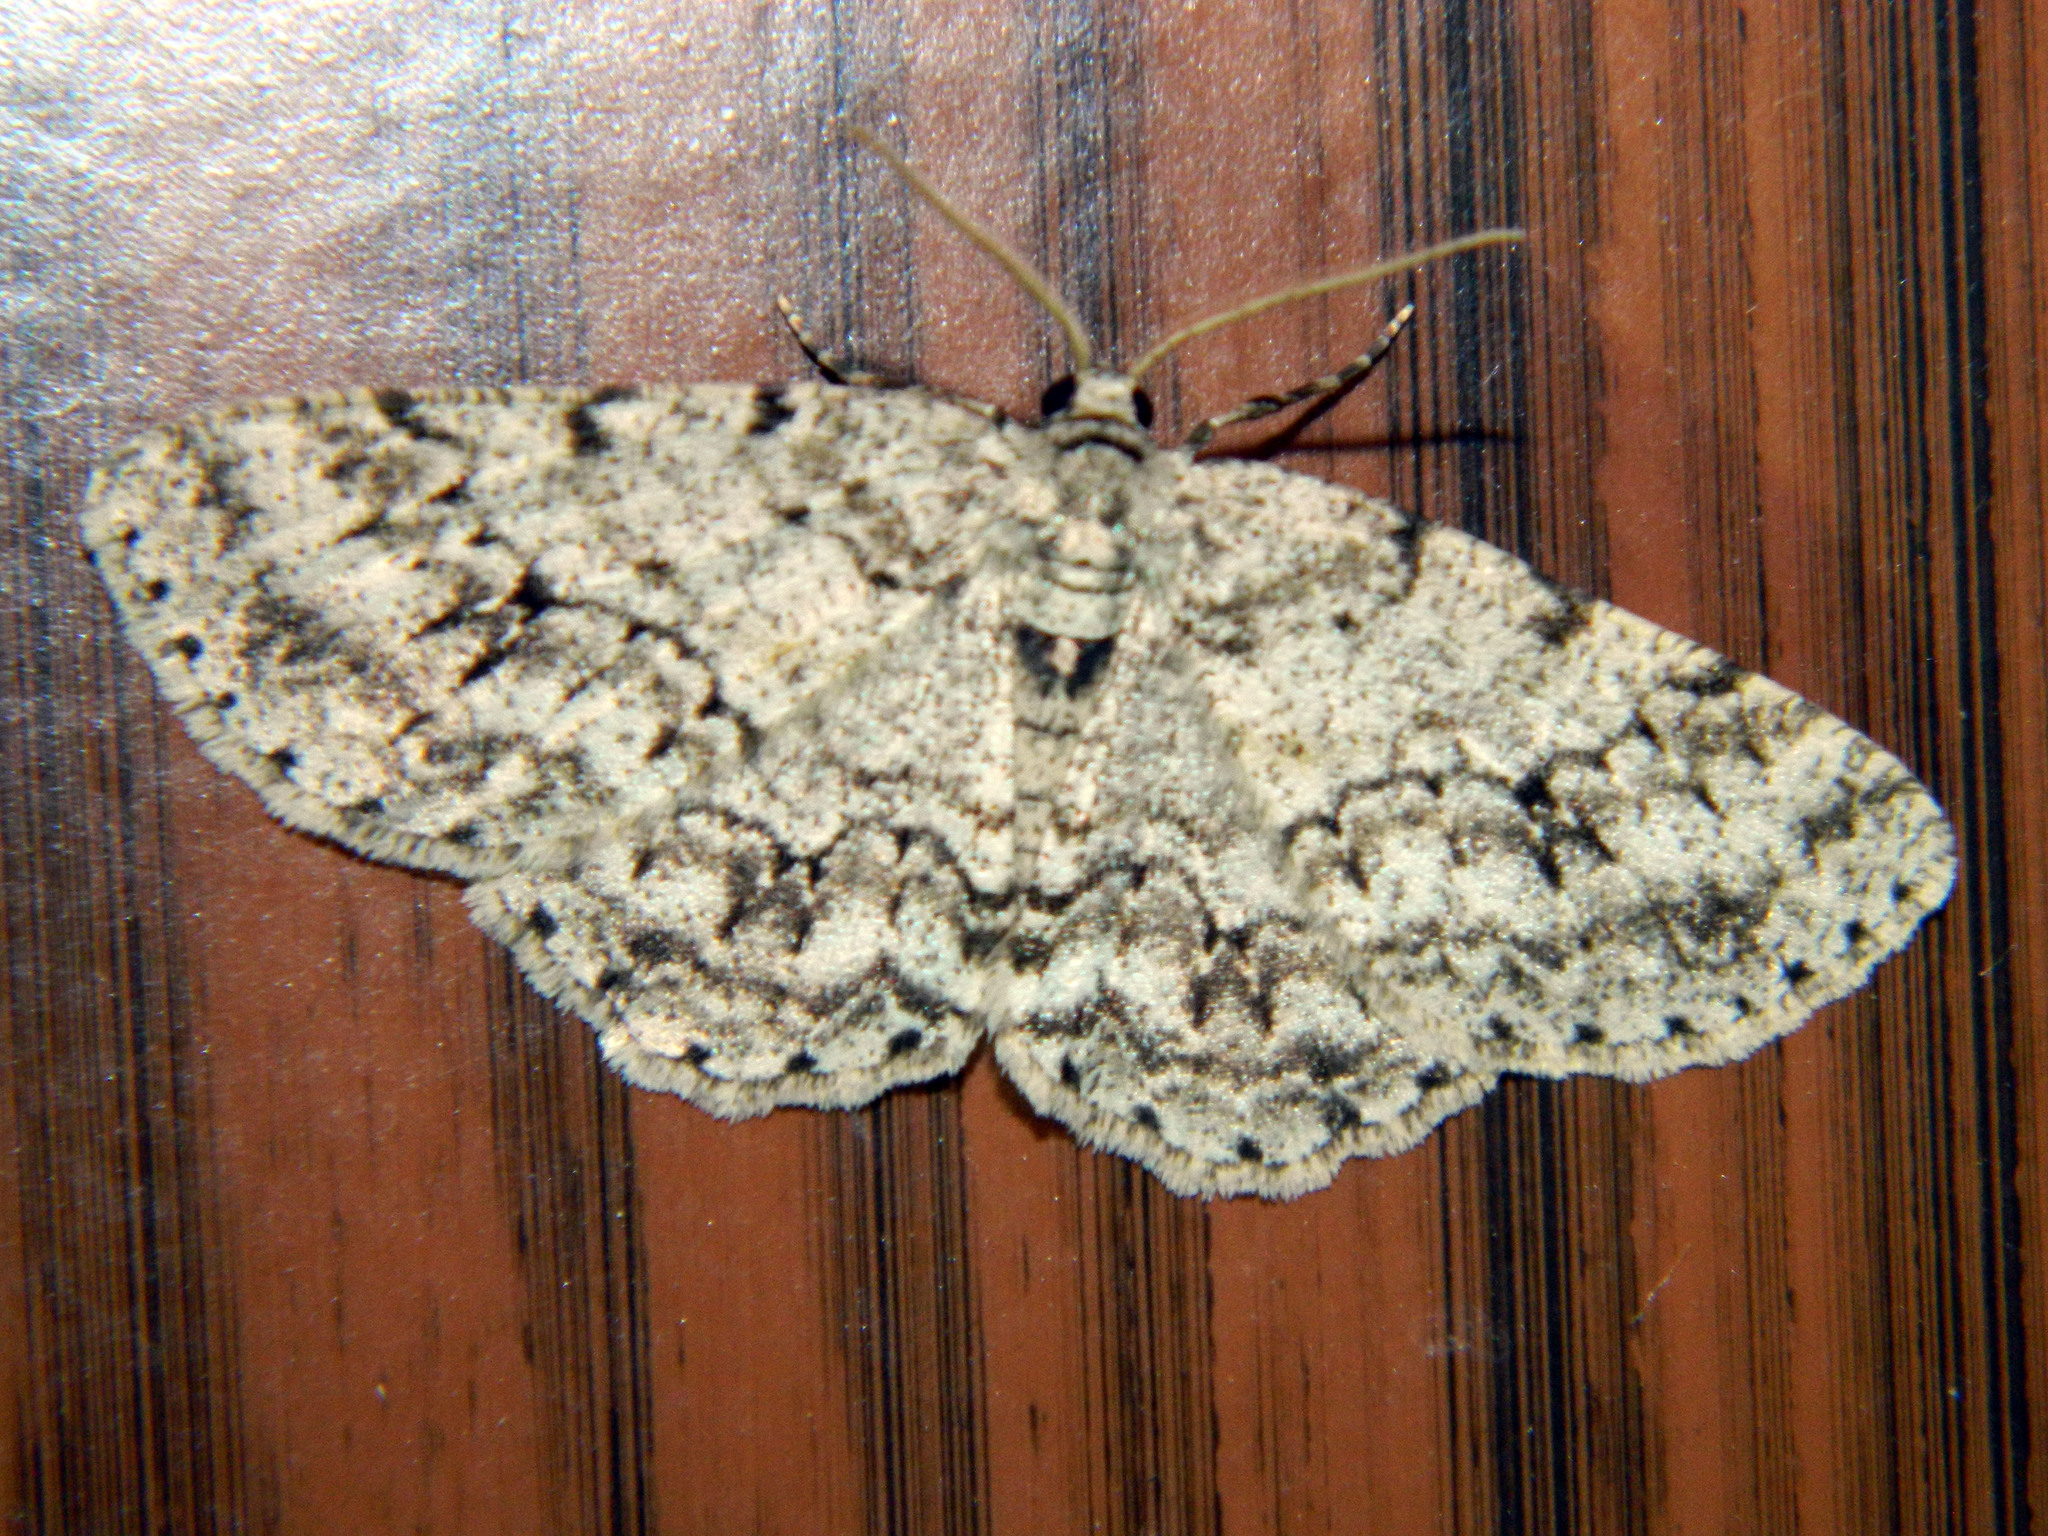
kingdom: Animalia
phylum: Arthropoda
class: Insecta
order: Lepidoptera
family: Geometridae
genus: Ectropis
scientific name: Ectropis crepuscularia
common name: Engrailed
